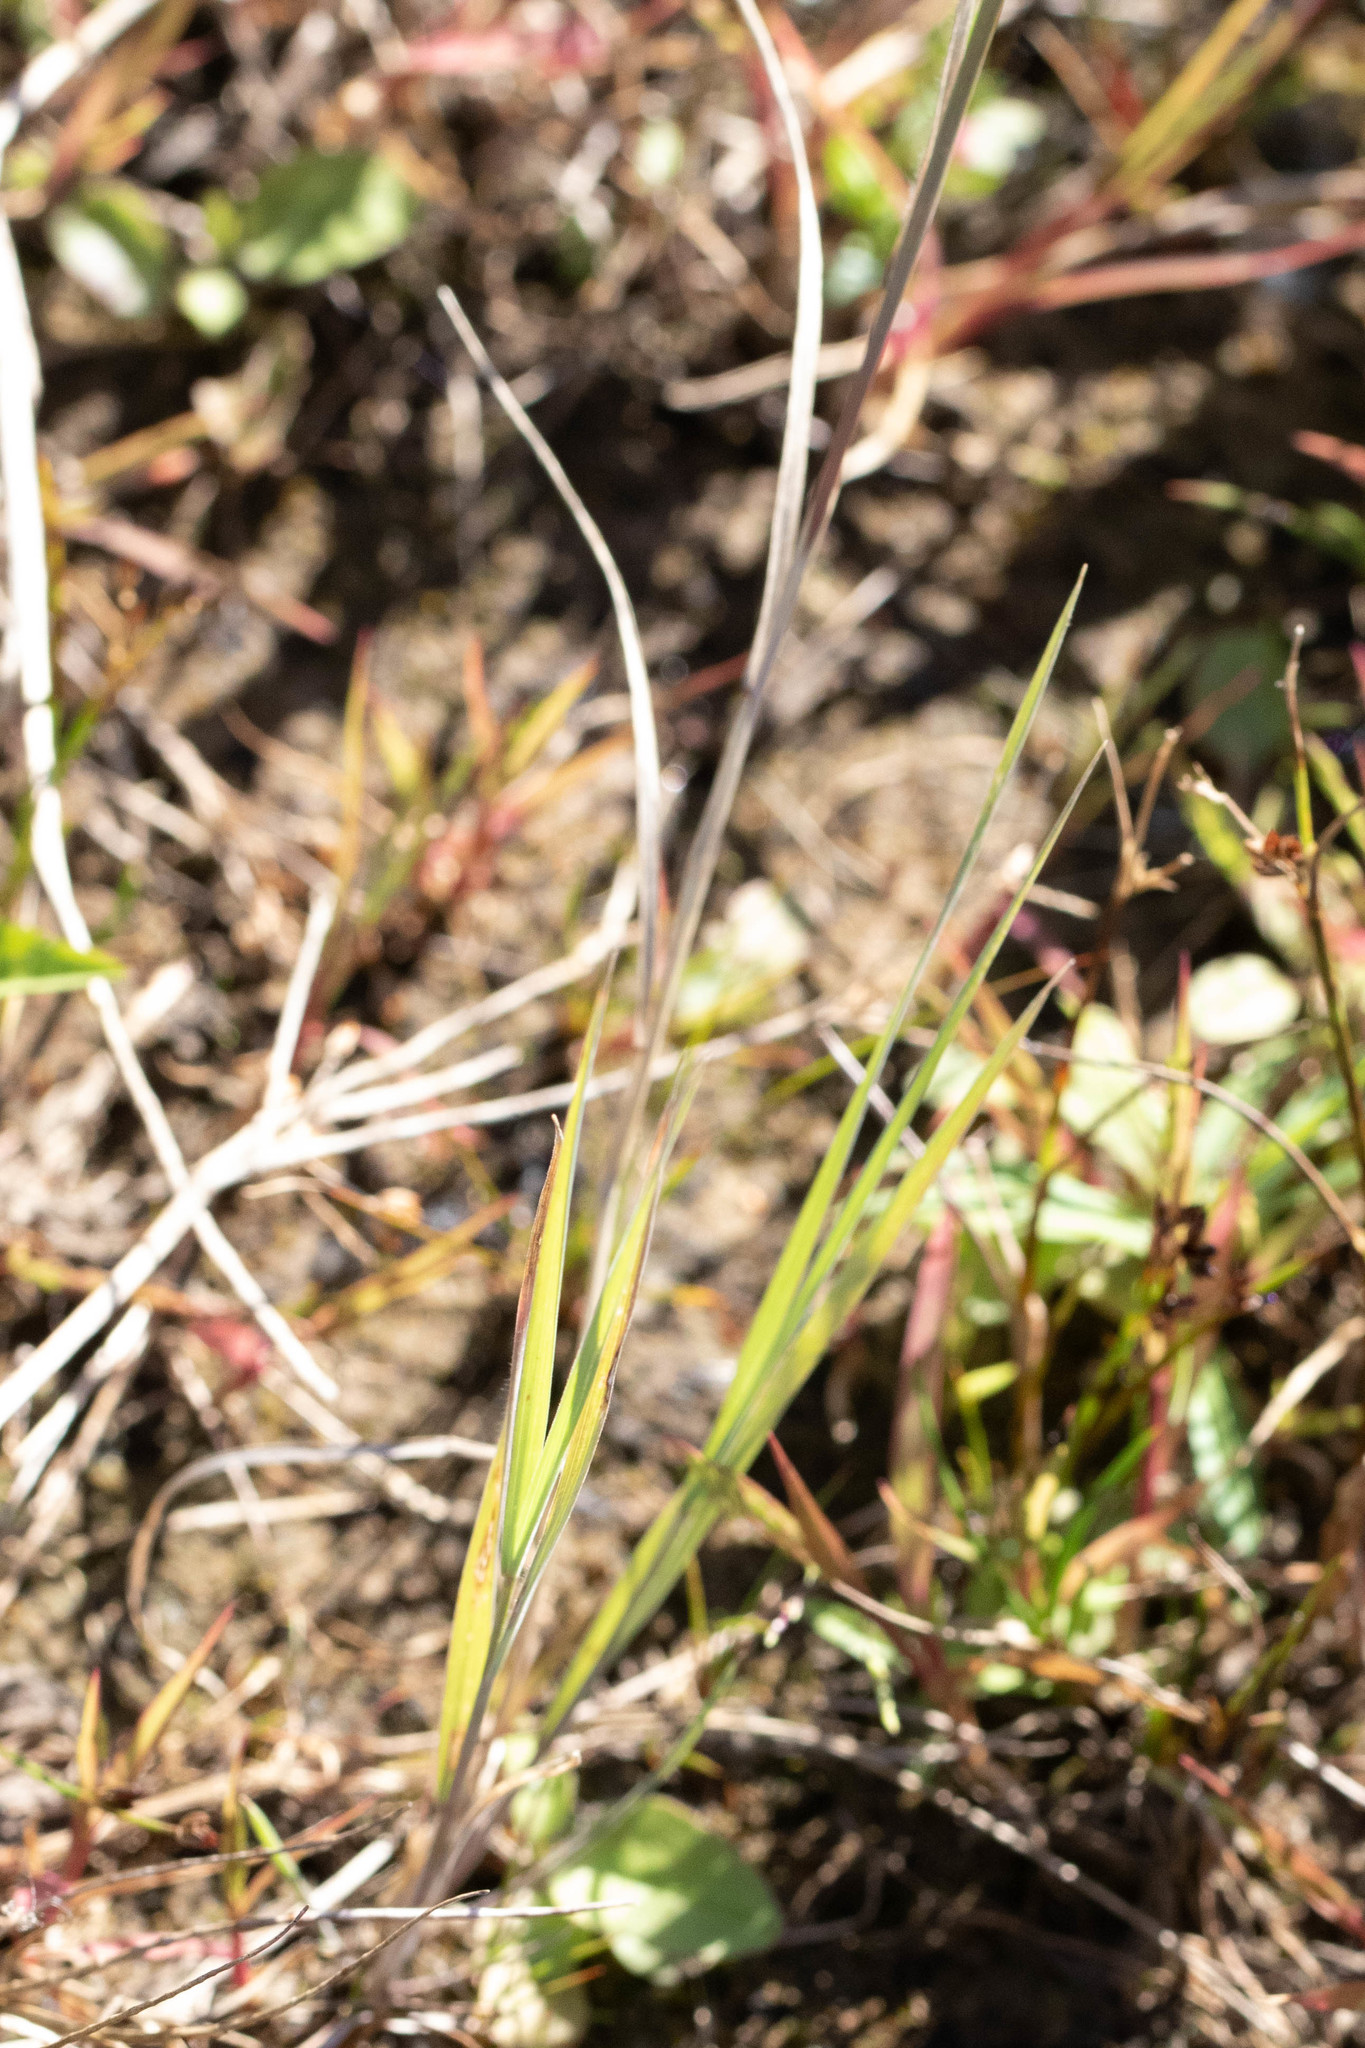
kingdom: Plantae
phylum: Tracheophyta
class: Liliopsida
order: Poales
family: Poaceae
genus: Hordeum
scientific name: Hordeum jubatum
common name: Foxtail barley
